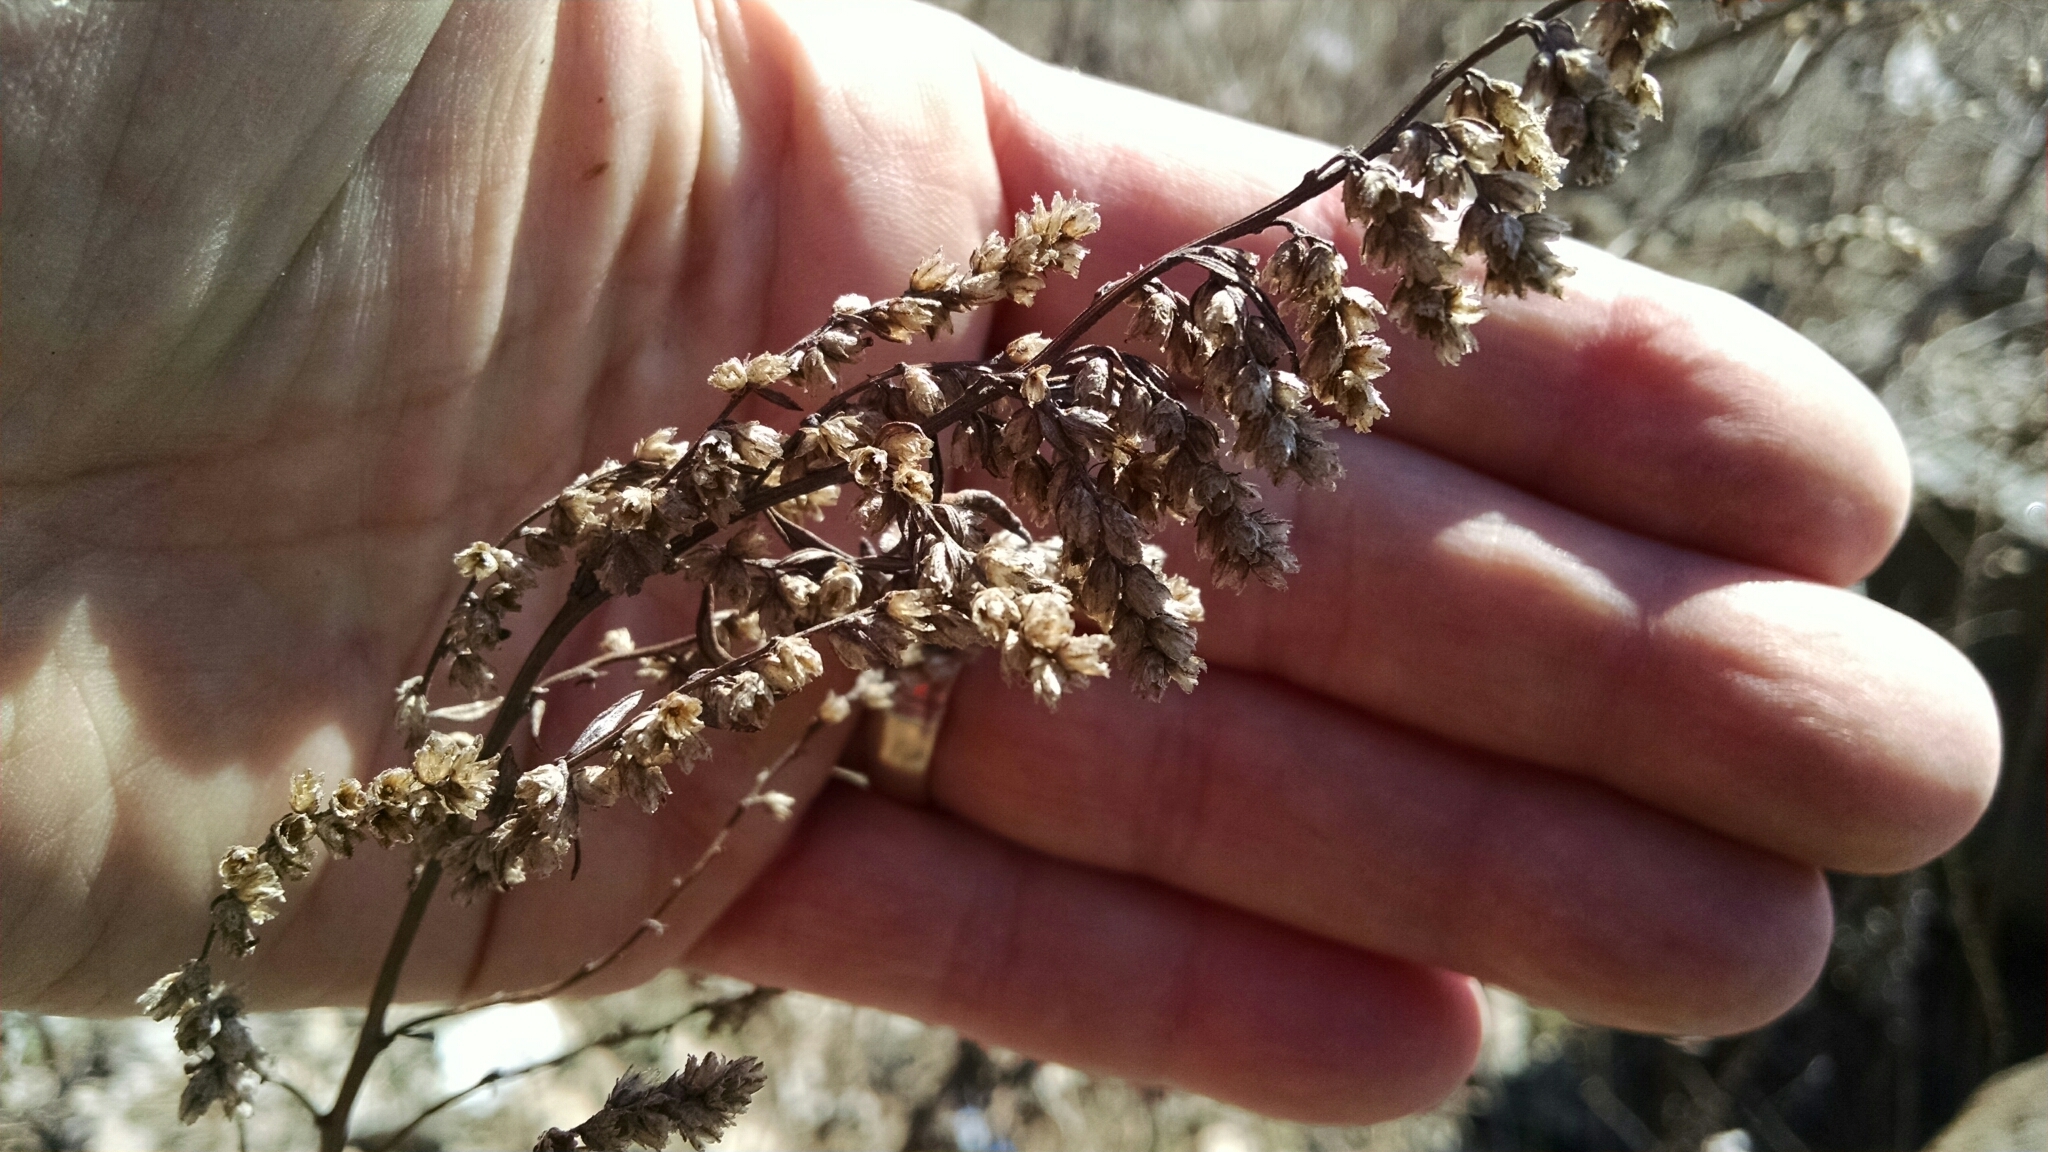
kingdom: Plantae
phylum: Tracheophyta
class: Magnoliopsida
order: Asterales
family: Asteraceae
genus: Artemisia
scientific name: Artemisia vulgaris
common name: Mugwort
